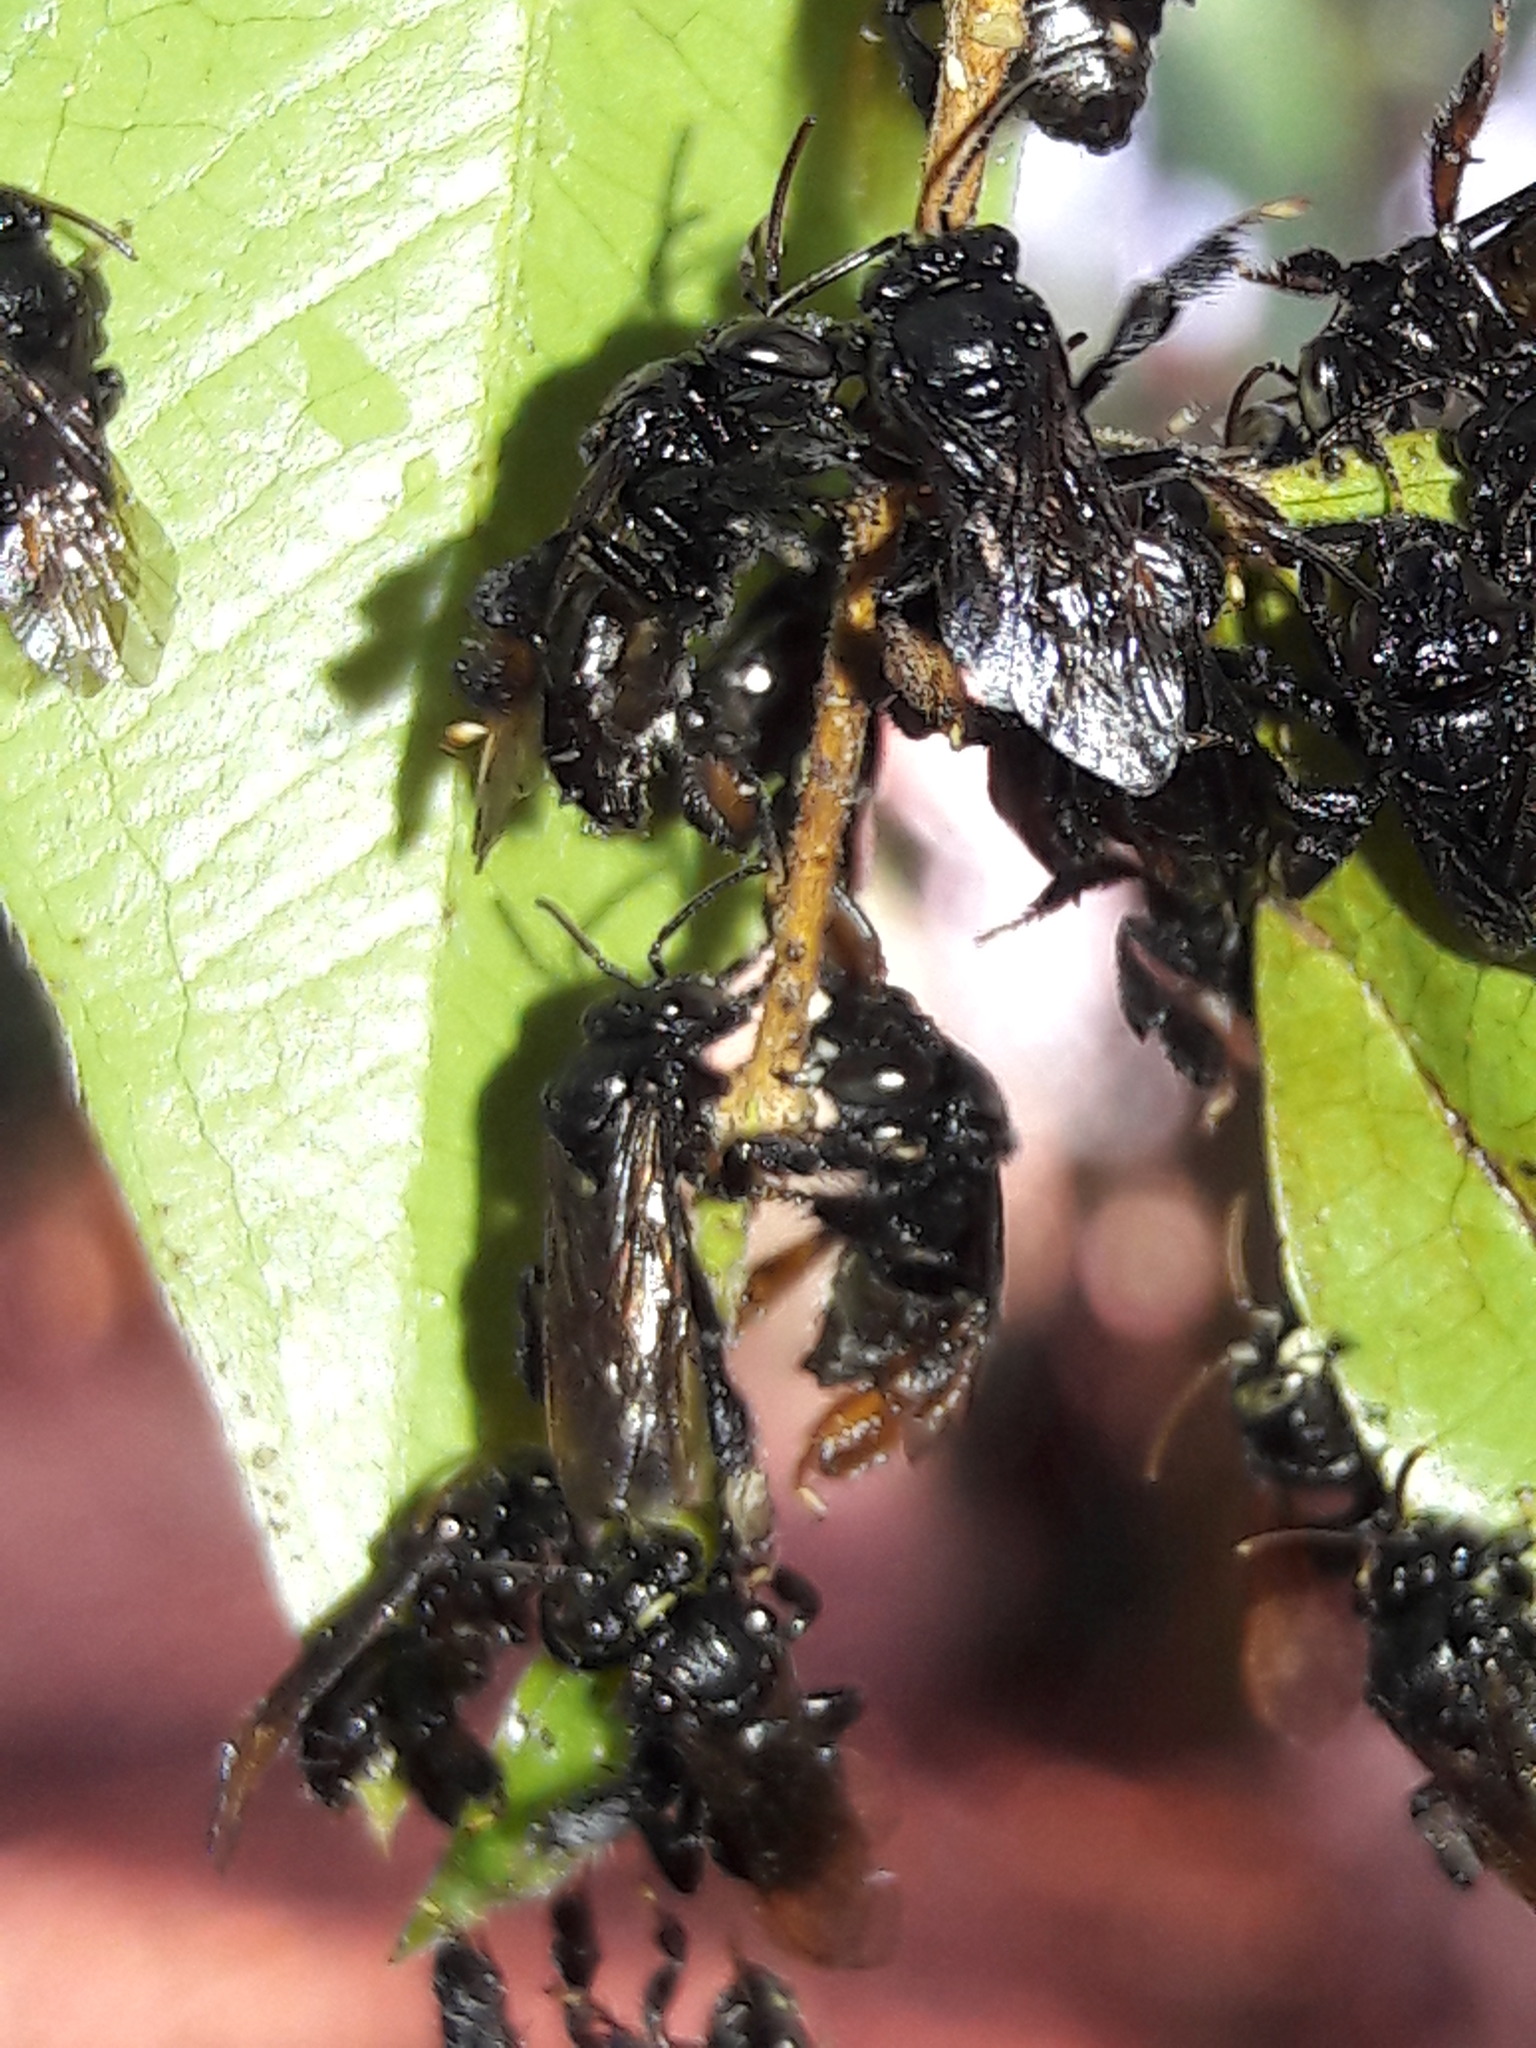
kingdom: Animalia
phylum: Arthropoda
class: Insecta
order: Hymenoptera
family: Apidae
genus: Paratetrapedia
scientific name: Paratetrapedia connexa
